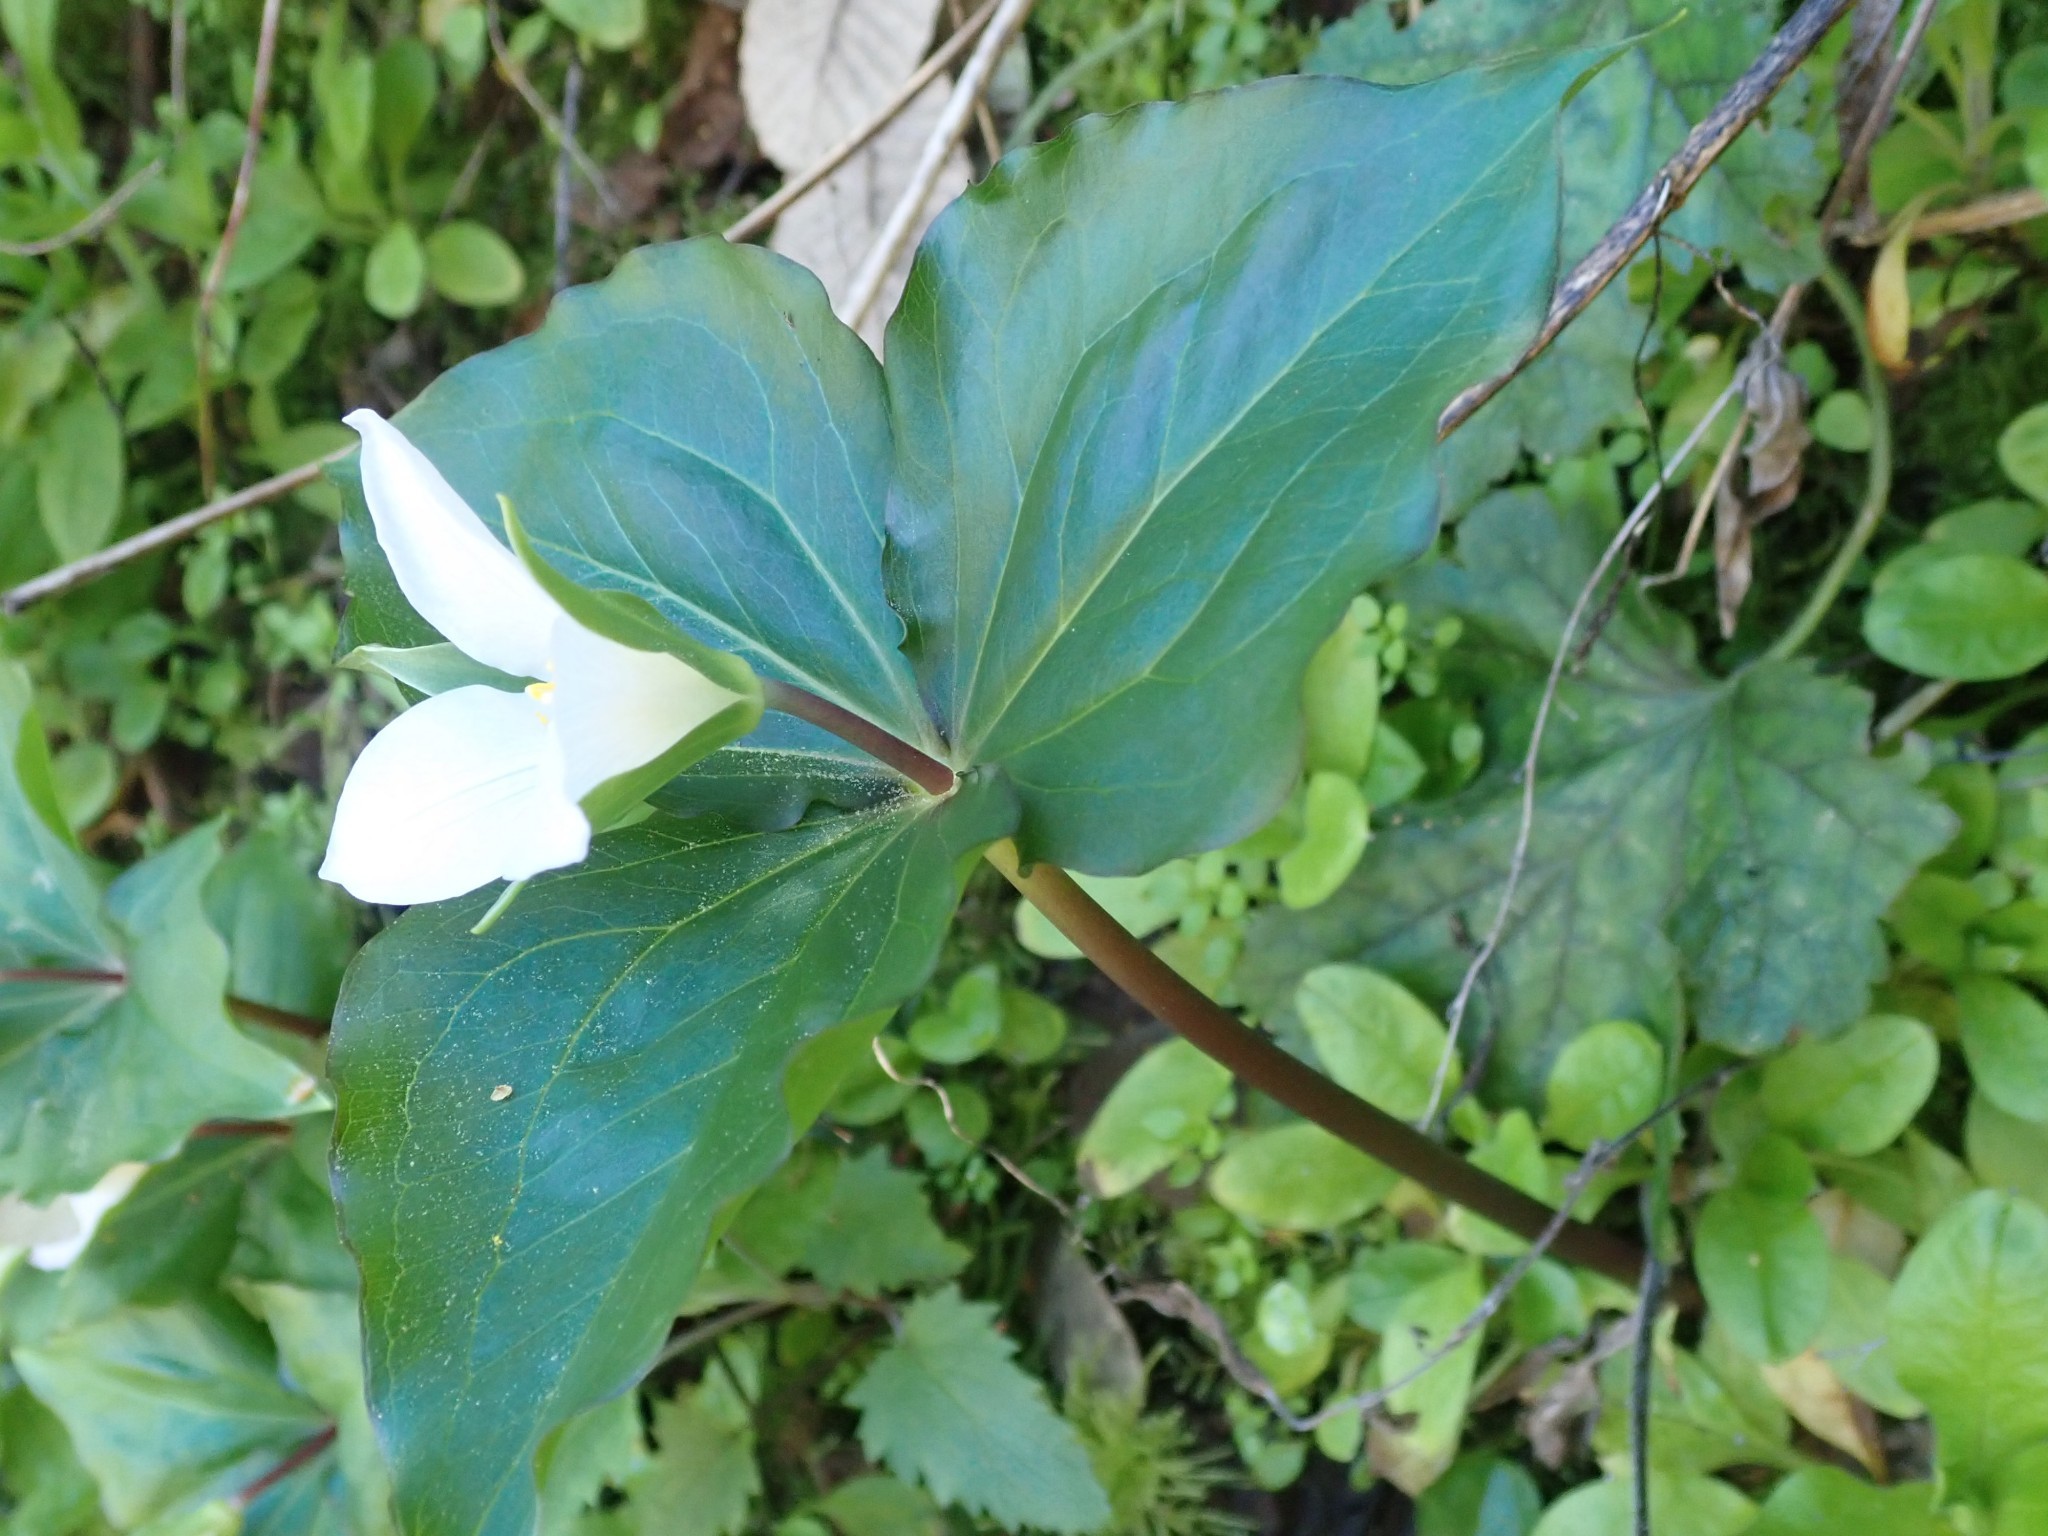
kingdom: Plantae
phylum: Tracheophyta
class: Liliopsida
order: Liliales
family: Melanthiaceae
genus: Trillium
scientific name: Trillium ovatum
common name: Pacific trillium
